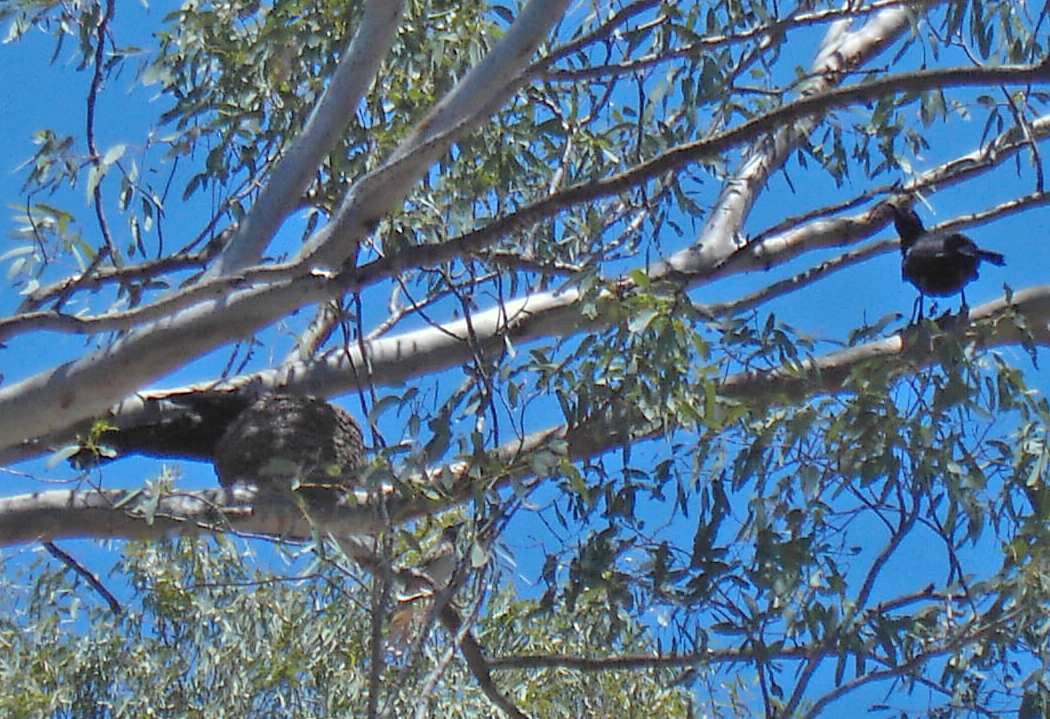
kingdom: Animalia
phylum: Chordata
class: Aves
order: Passeriformes
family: Corcoracidae
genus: Corcorax
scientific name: Corcorax melanoramphos
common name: White-winged chough
